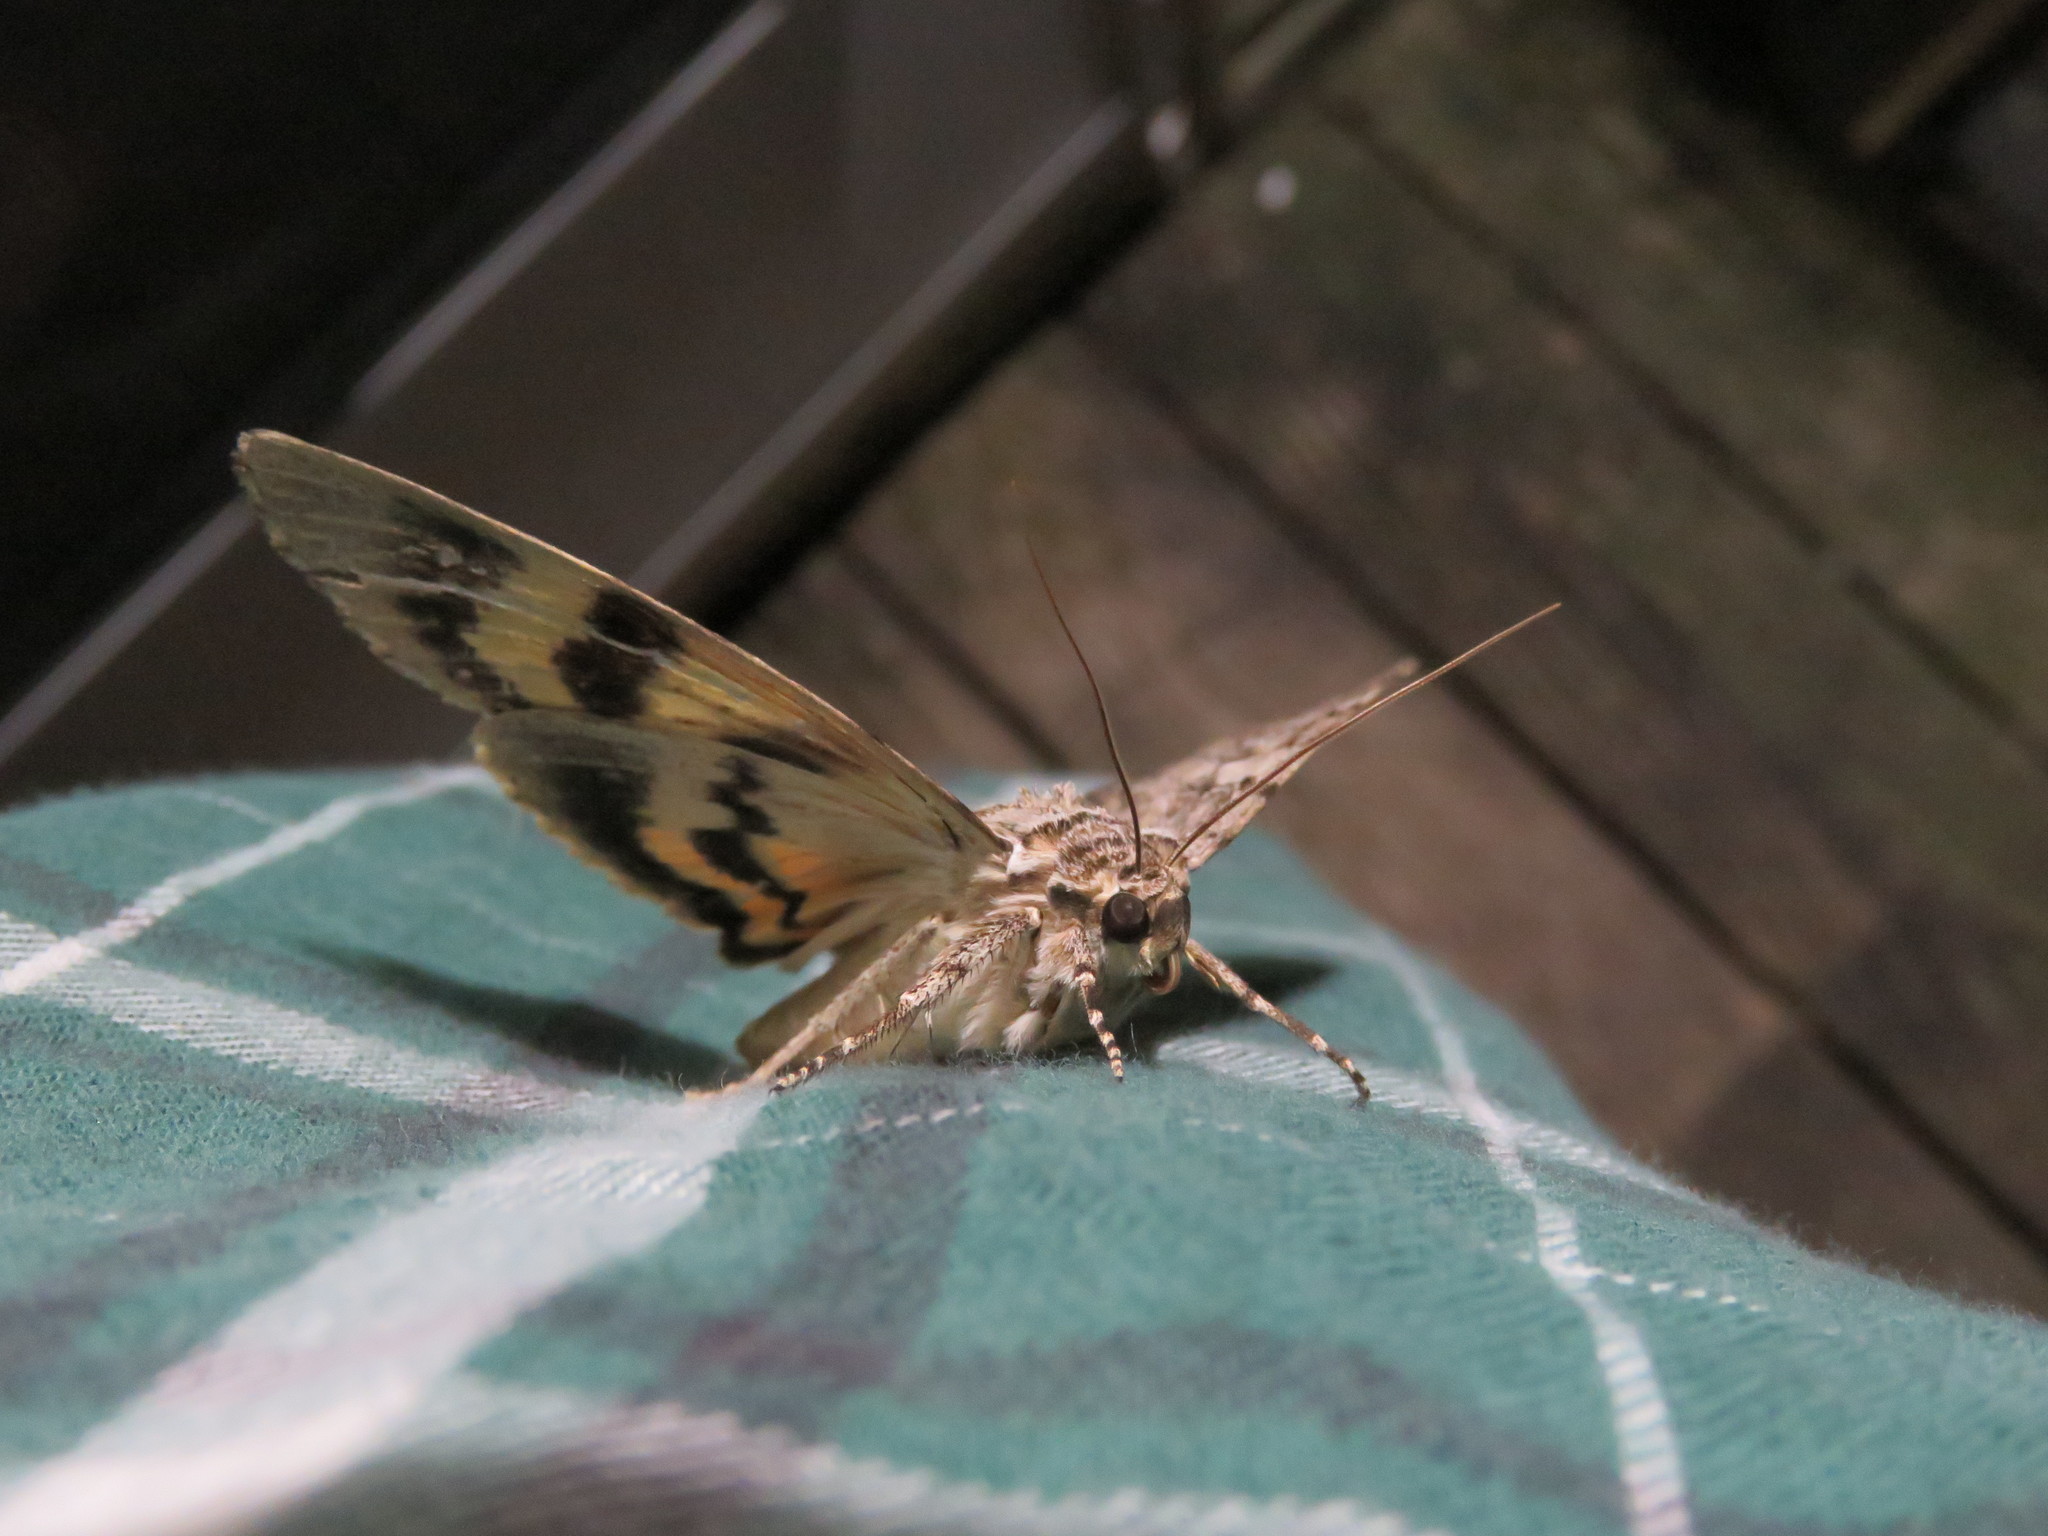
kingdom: Animalia
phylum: Arthropoda
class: Insecta
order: Lepidoptera
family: Erebidae
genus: Catocala
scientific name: Catocala subnata
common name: Youthful underwing
